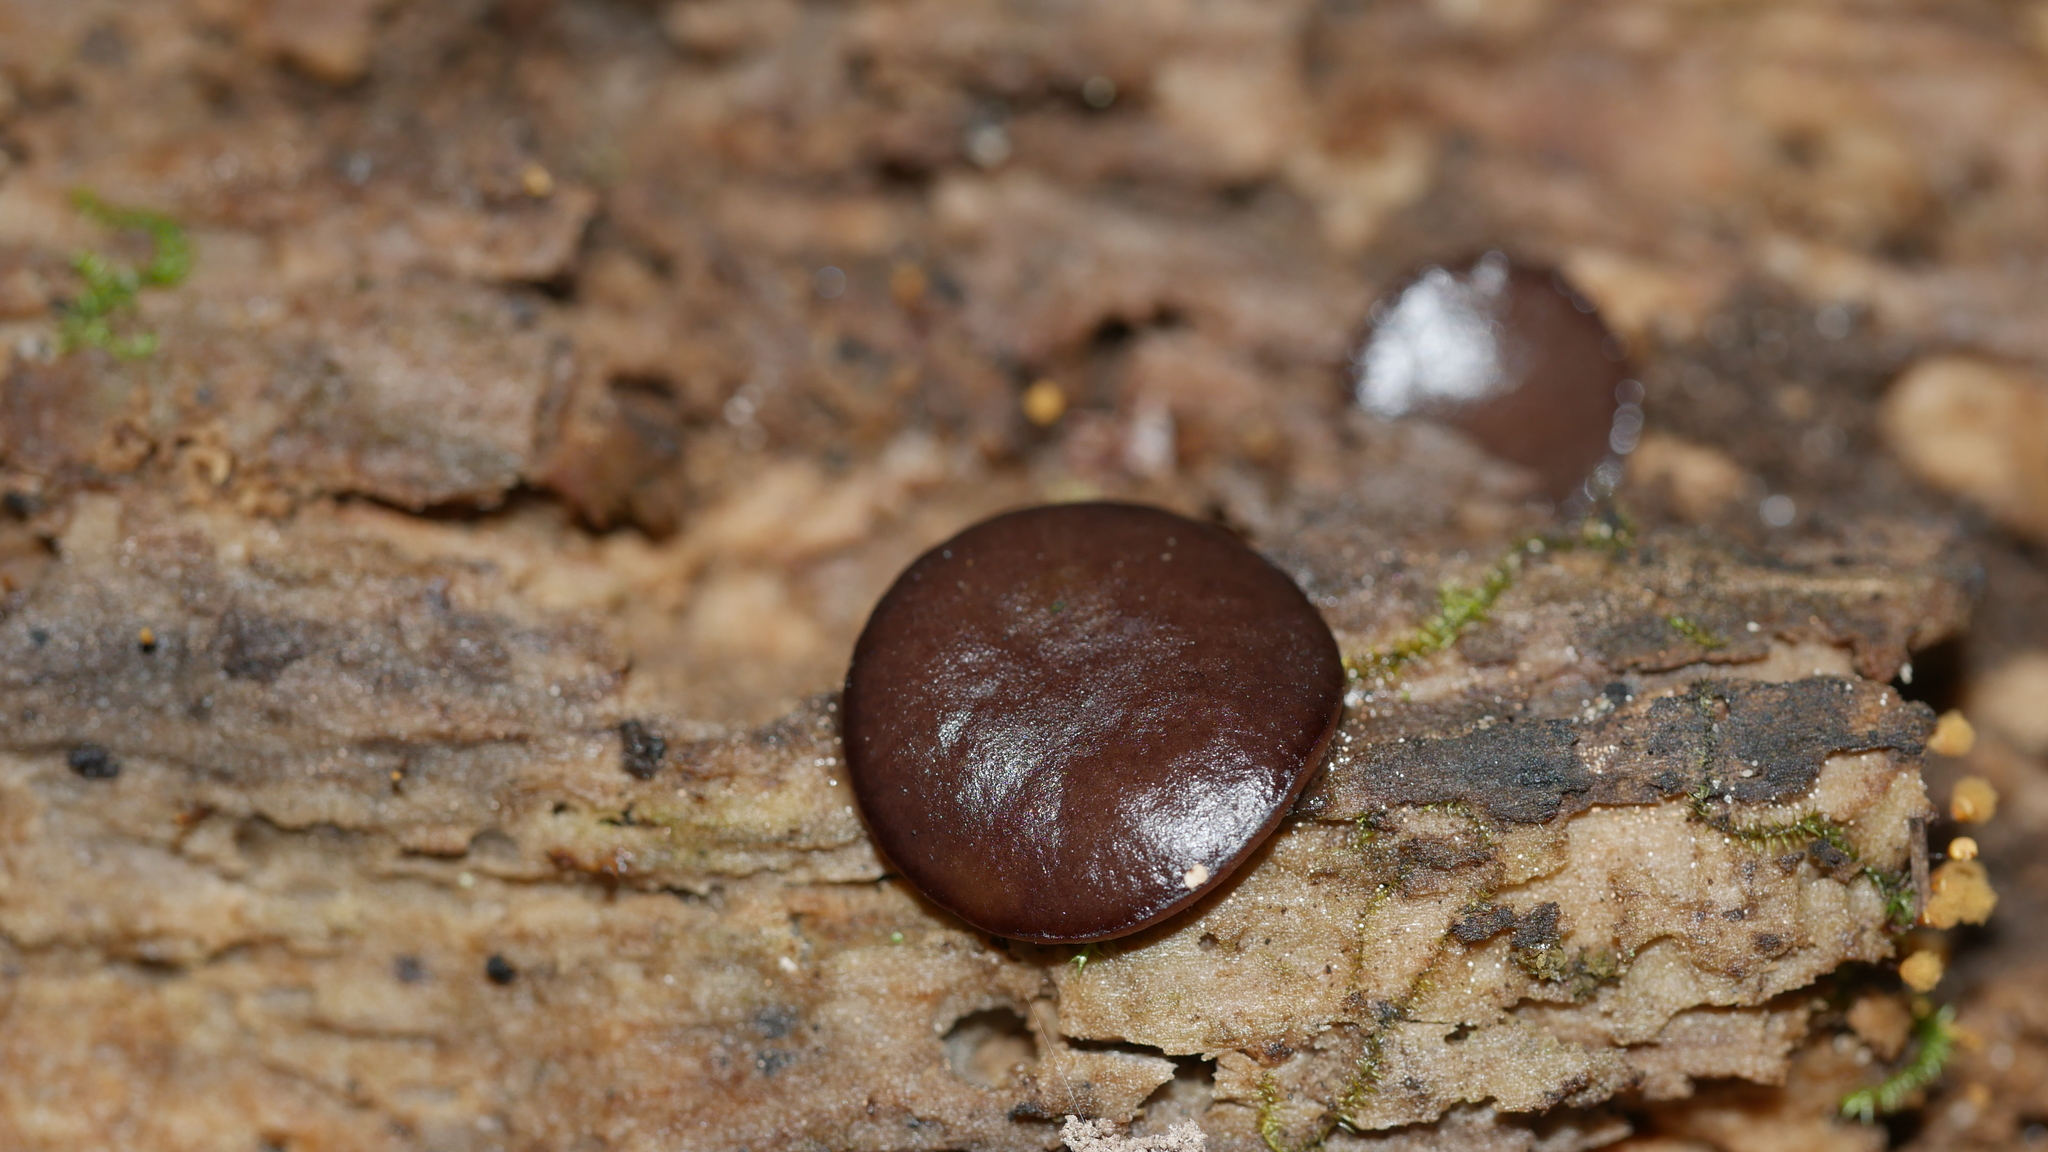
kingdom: Fungi
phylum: Ascomycota
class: Pezizomycetes
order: Pezizales
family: Pezizaceae
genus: Pachyella
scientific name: Pachyella clypeata
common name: Copper penny fungus
